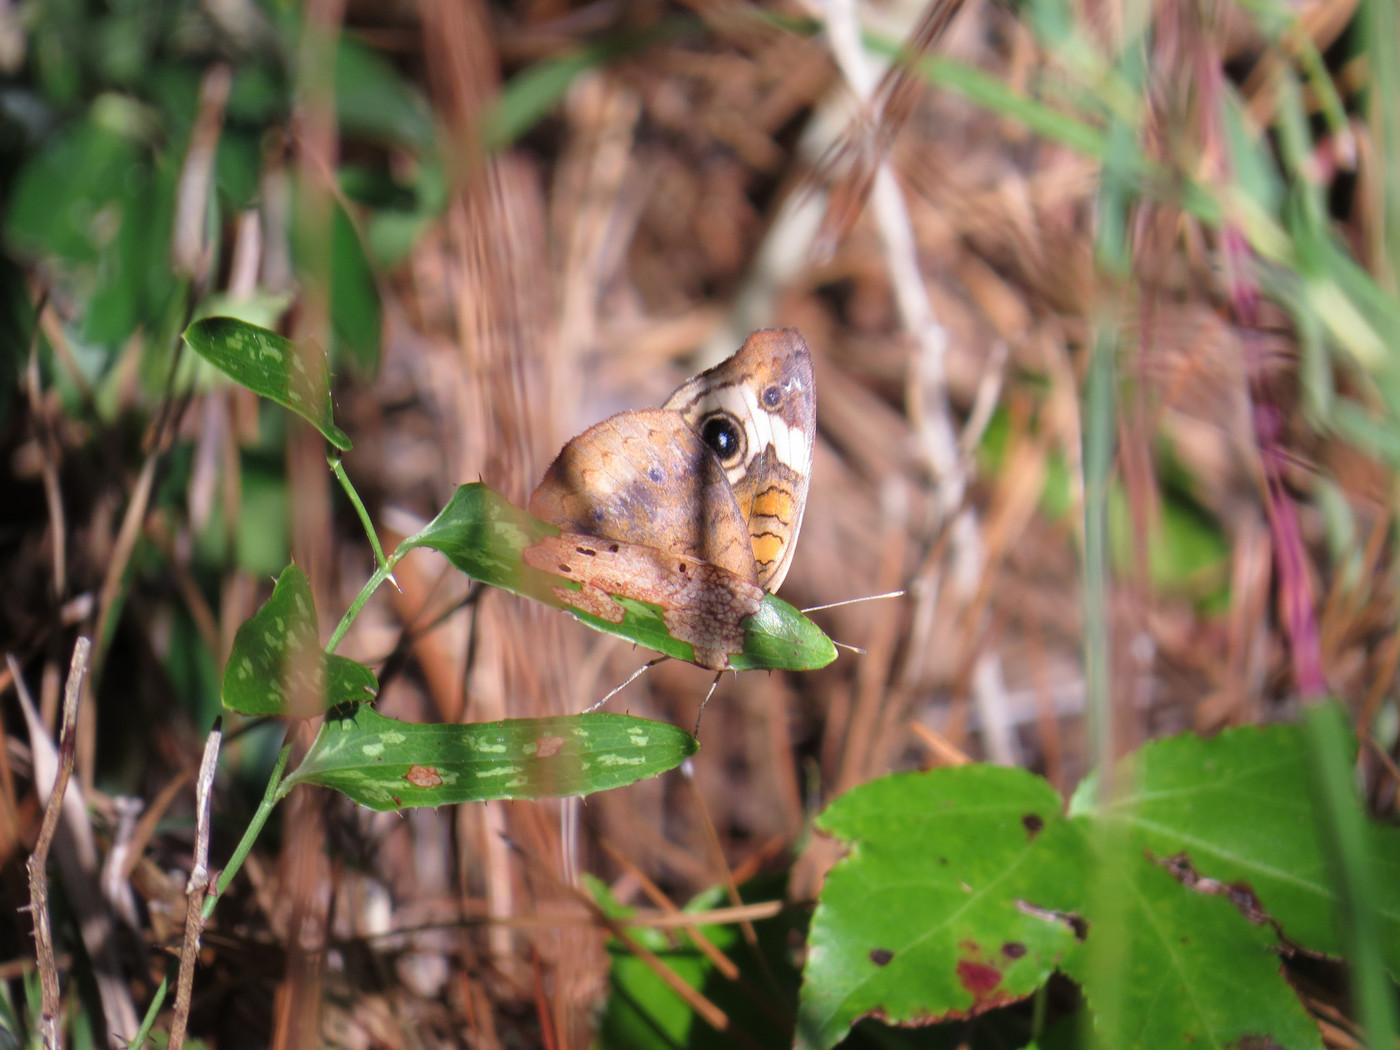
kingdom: Animalia
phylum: Arthropoda
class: Insecta
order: Lepidoptera
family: Nymphalidae
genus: Junonia
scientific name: Junonia coenia
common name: Common buckeye
